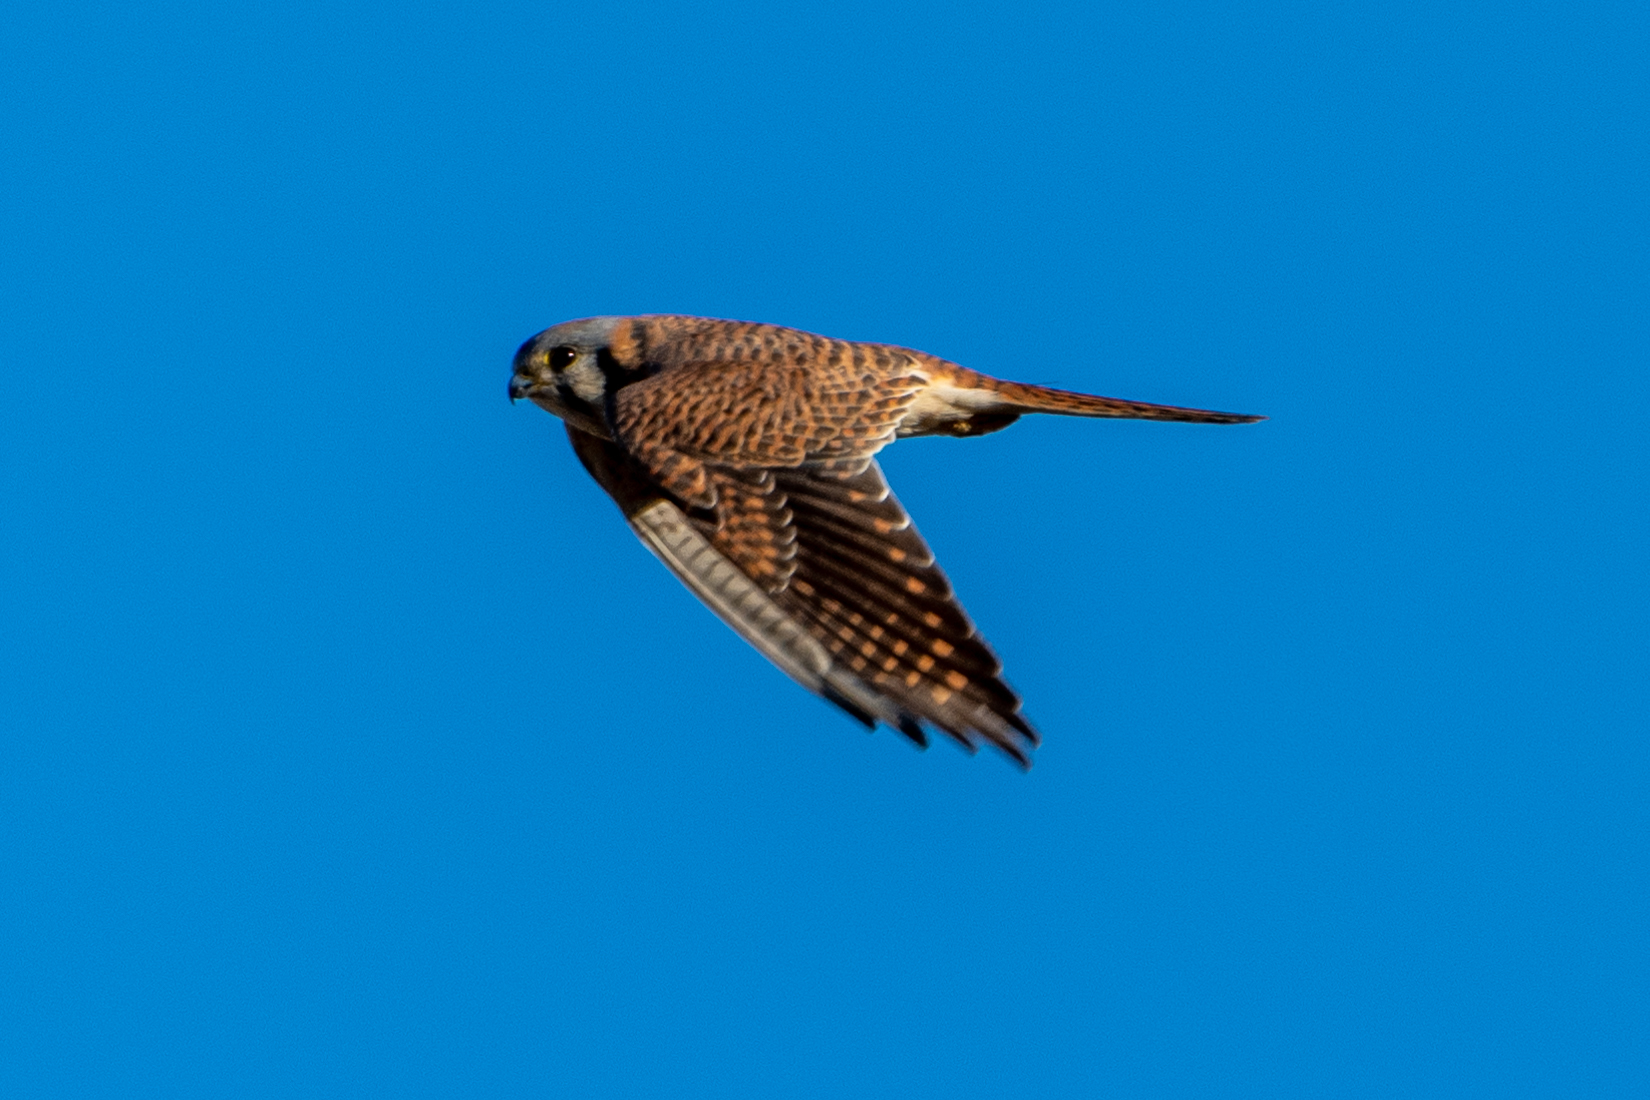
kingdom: Animalia
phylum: Chordata
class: Aves
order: Falconiformes
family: Falconidae
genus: Falco
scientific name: Falco sparverius
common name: American kestrel
